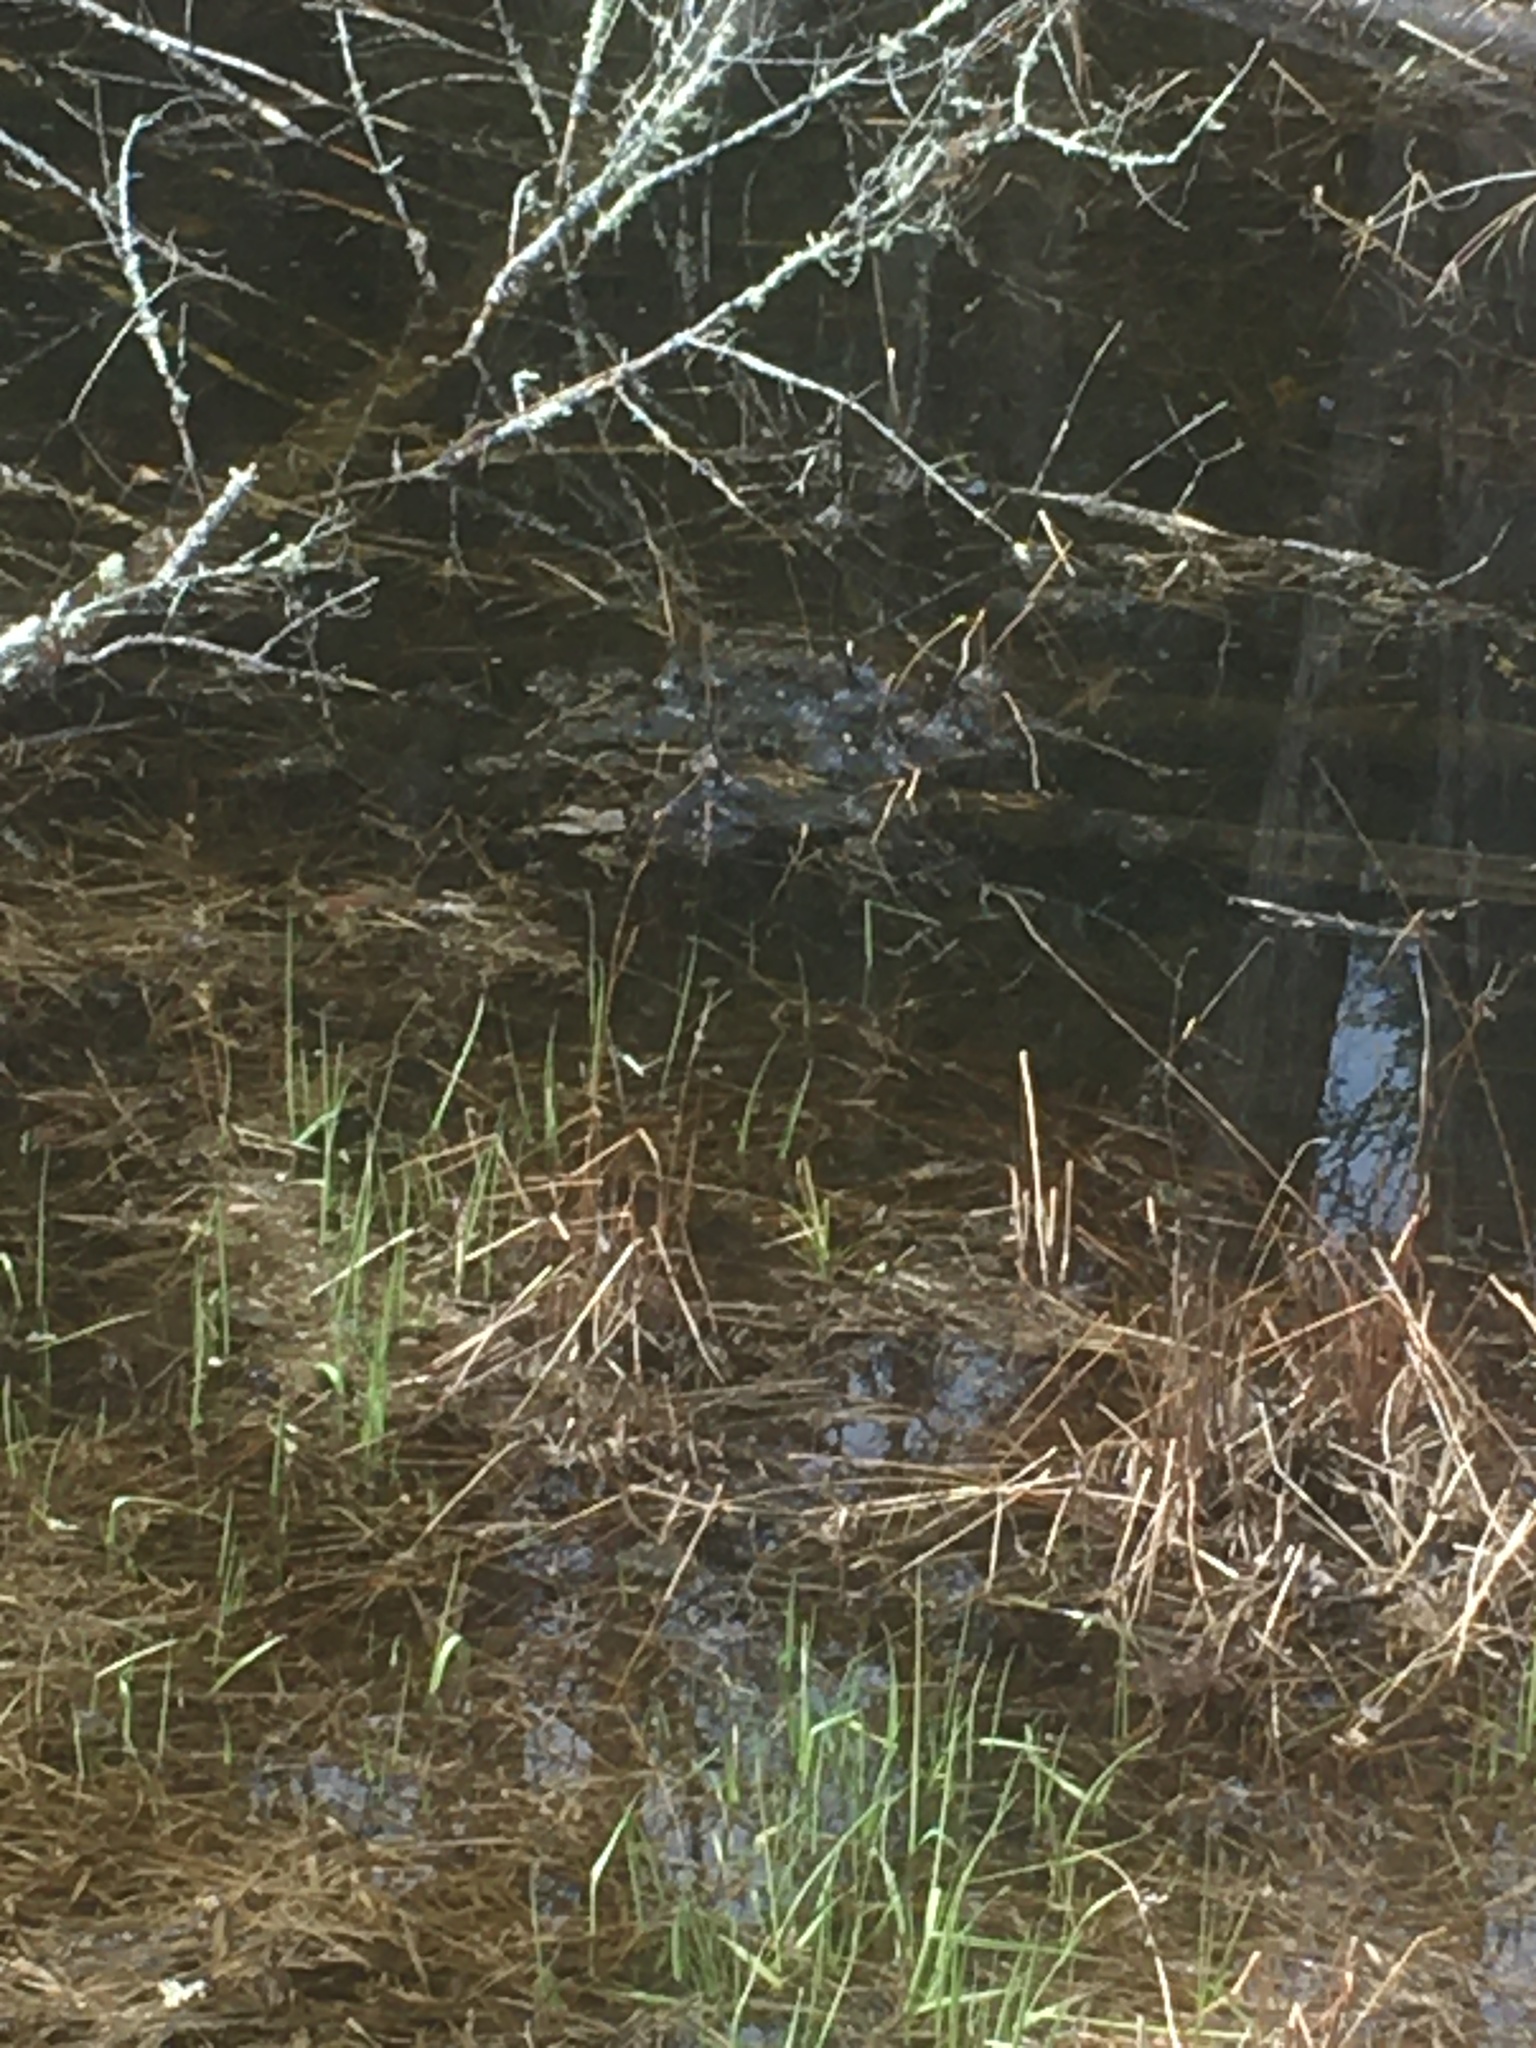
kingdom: Animalia
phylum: Chordata
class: Amphibia
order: Anura
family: Ranidae
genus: Lithobates
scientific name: Lithobates sylvaticus
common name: Wood frog
